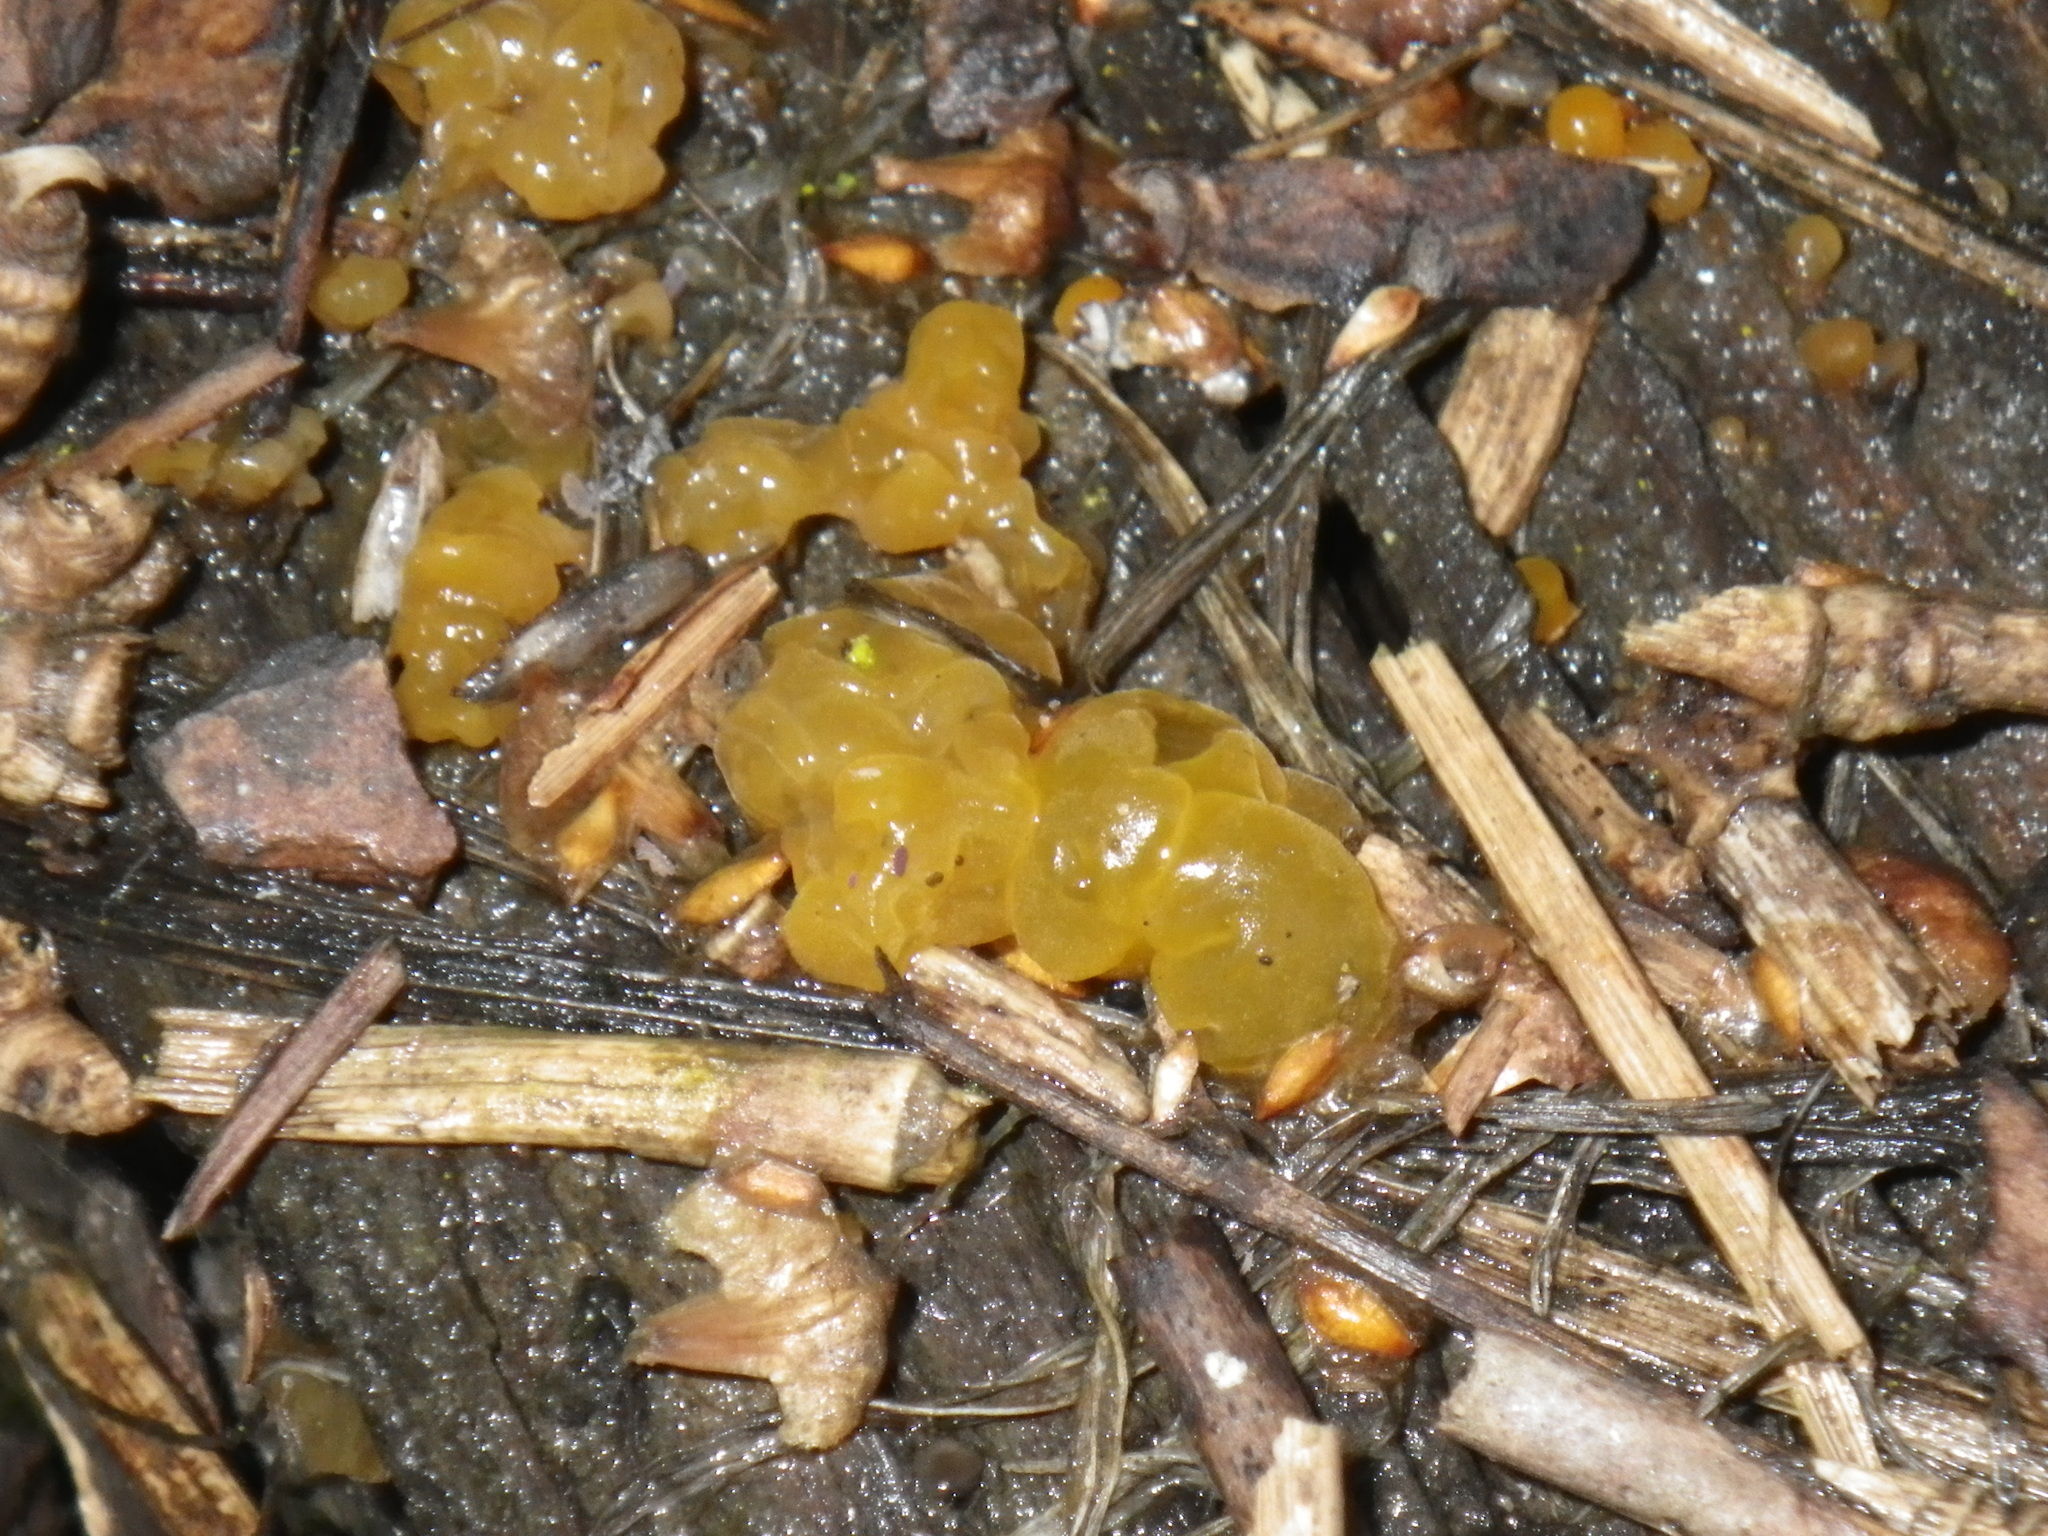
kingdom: Fungi
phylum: Basidiomycota
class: Tremellomycetes
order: Tremellales
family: Tremellaceae
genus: Tremella
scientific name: Tremella mesenterica
